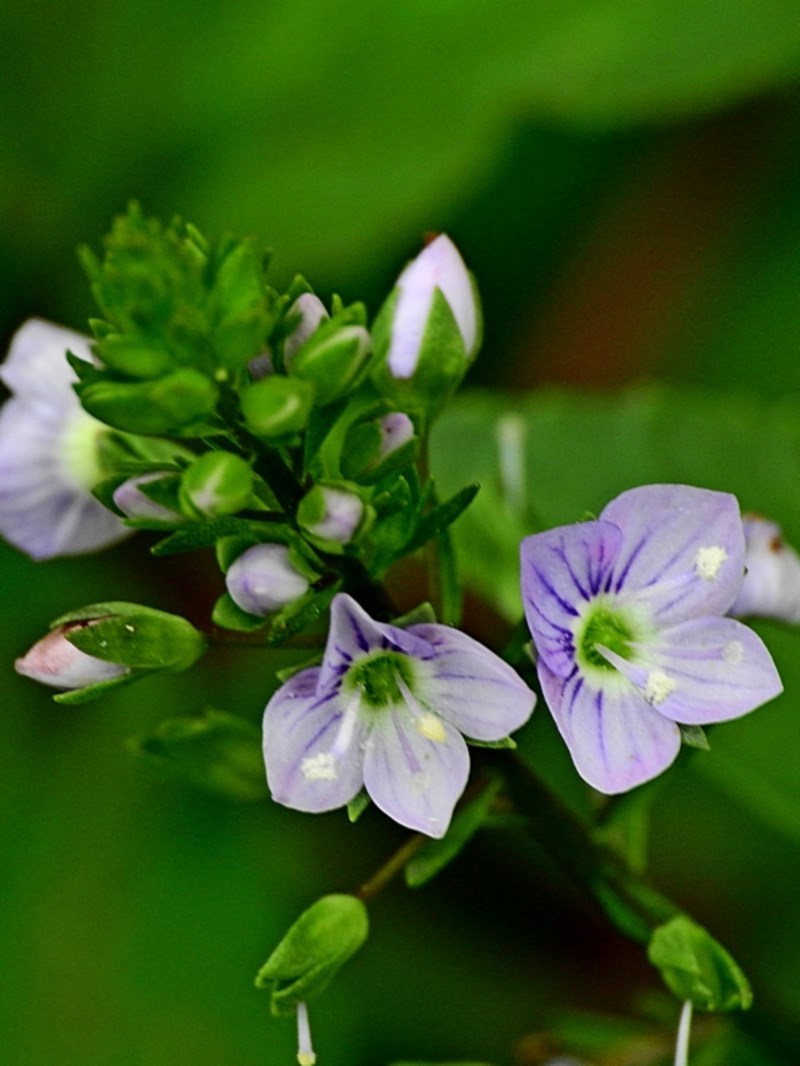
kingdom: Plantae
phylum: Tracheophyta
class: Magnoliopsida
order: Lamiales
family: Plantaginaceae
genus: Veronica
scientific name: Veronica anagallis-aquatica
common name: Water speedwell
